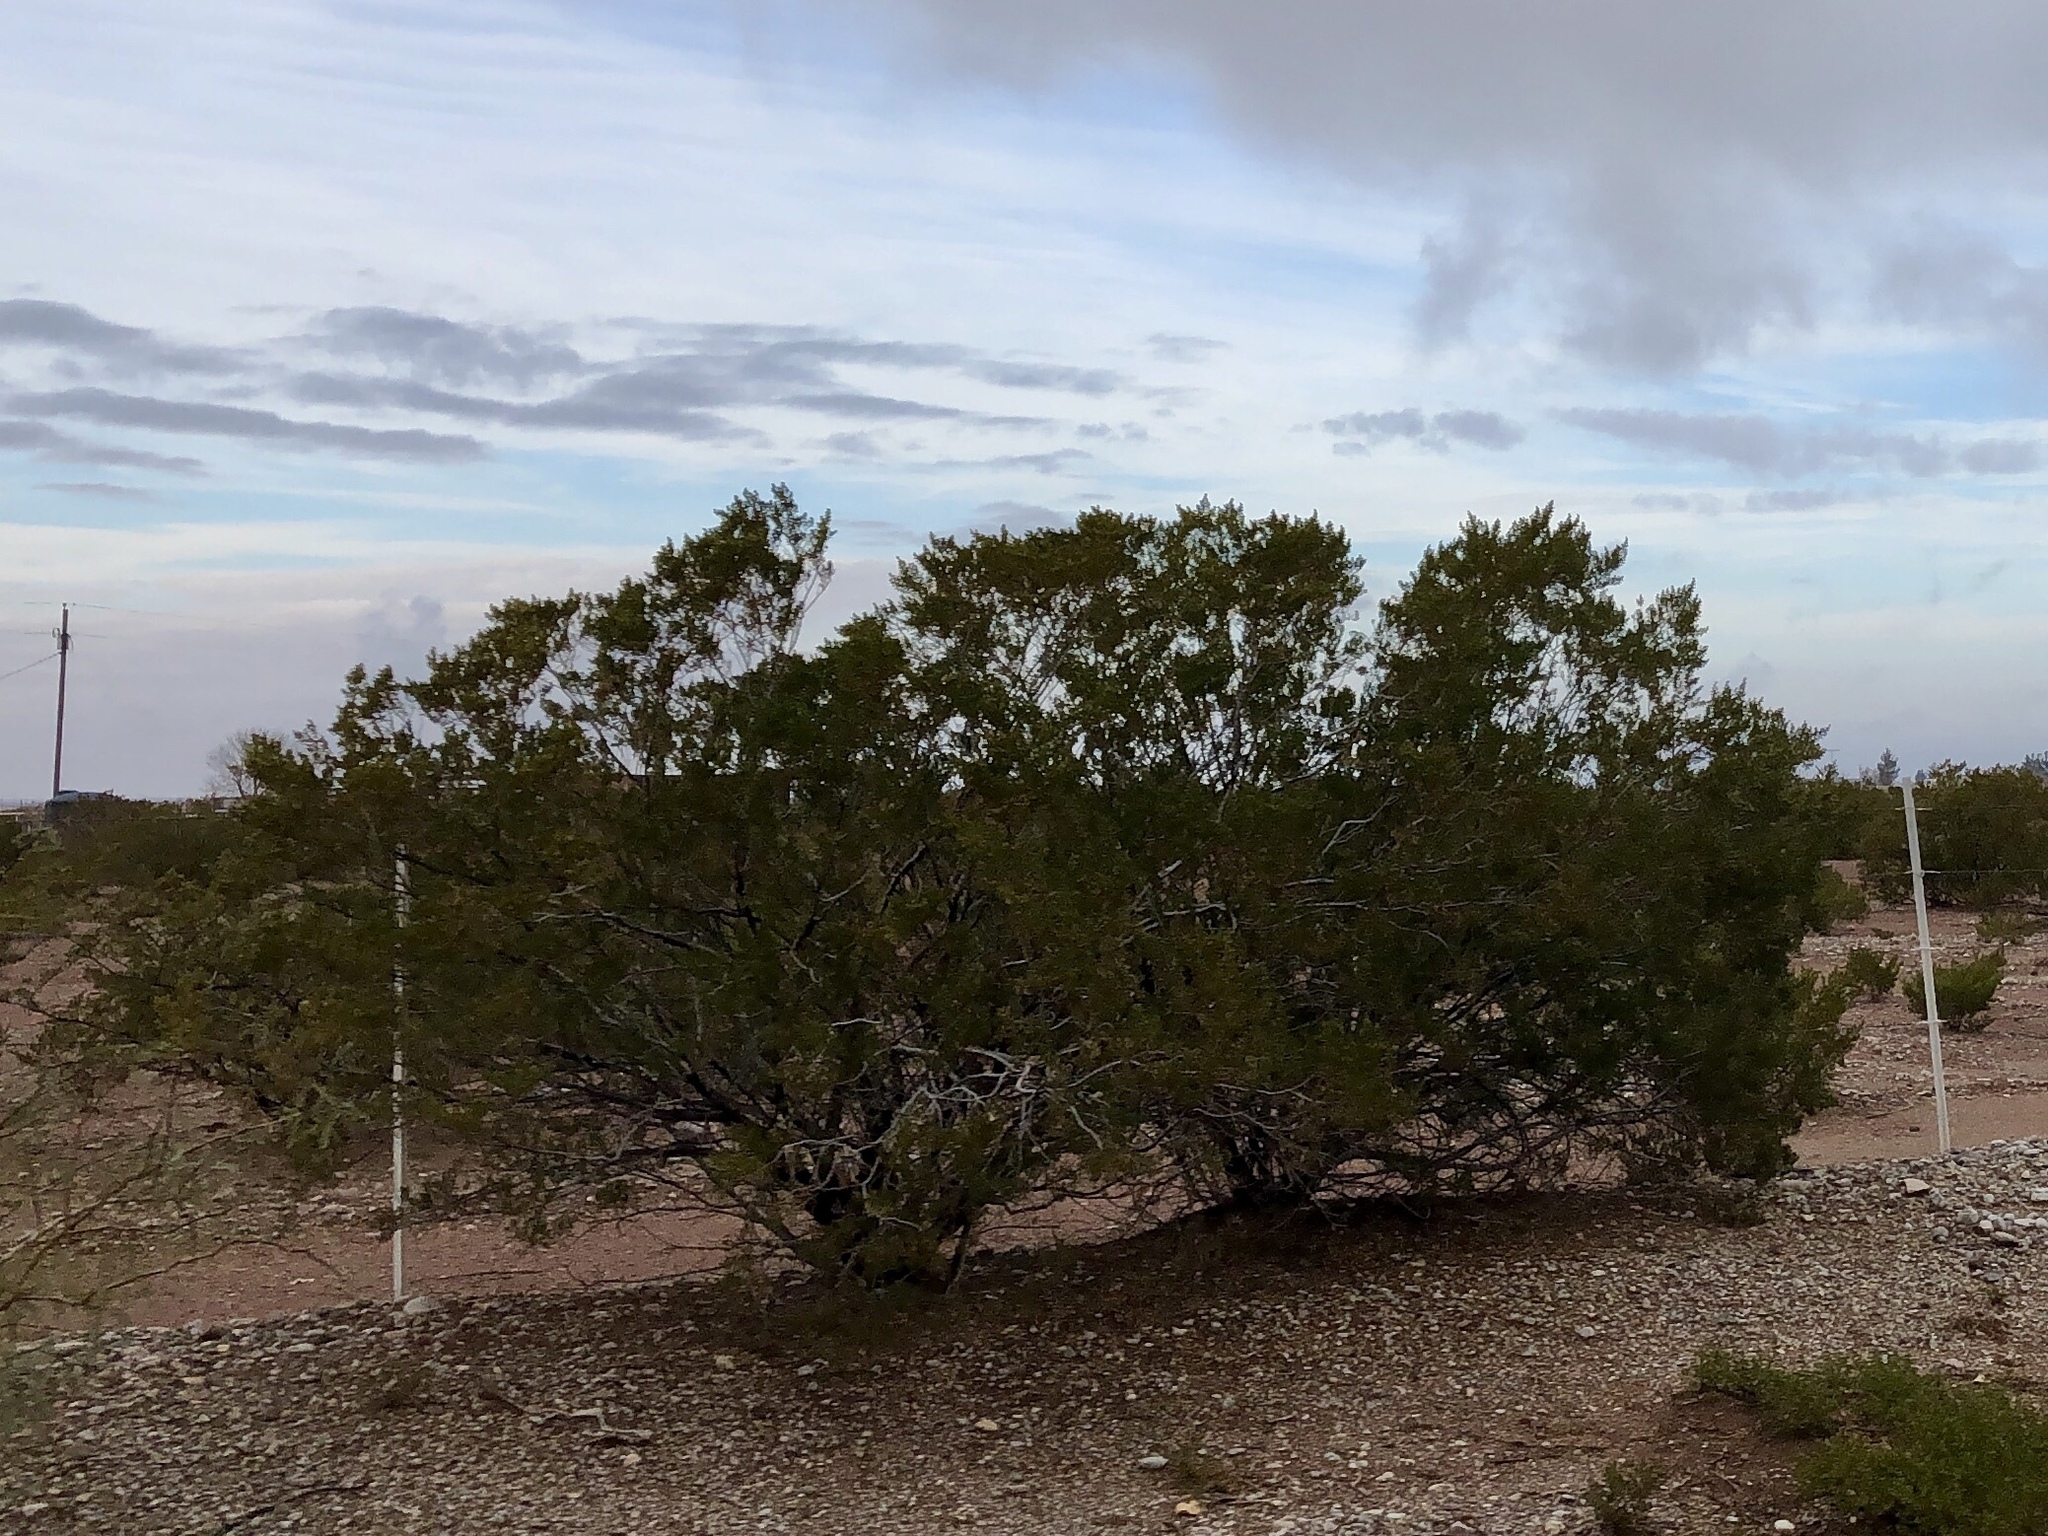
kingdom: Plantae
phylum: Tracheophyta
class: Magnoliopsida
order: Zygophyllales
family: Zygophyllaceae
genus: Larrea
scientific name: Larrea tridentata
